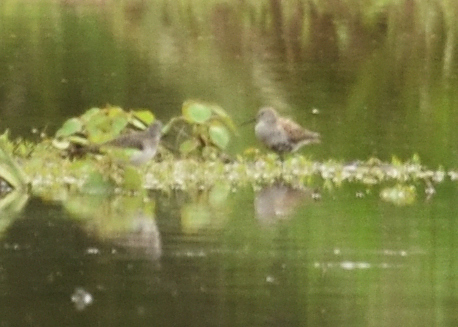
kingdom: Animalia
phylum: Chordata
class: Aves
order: Charadriiformes
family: Scolopacidae
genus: Calidris
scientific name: Calidris alpina
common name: Dunlin
